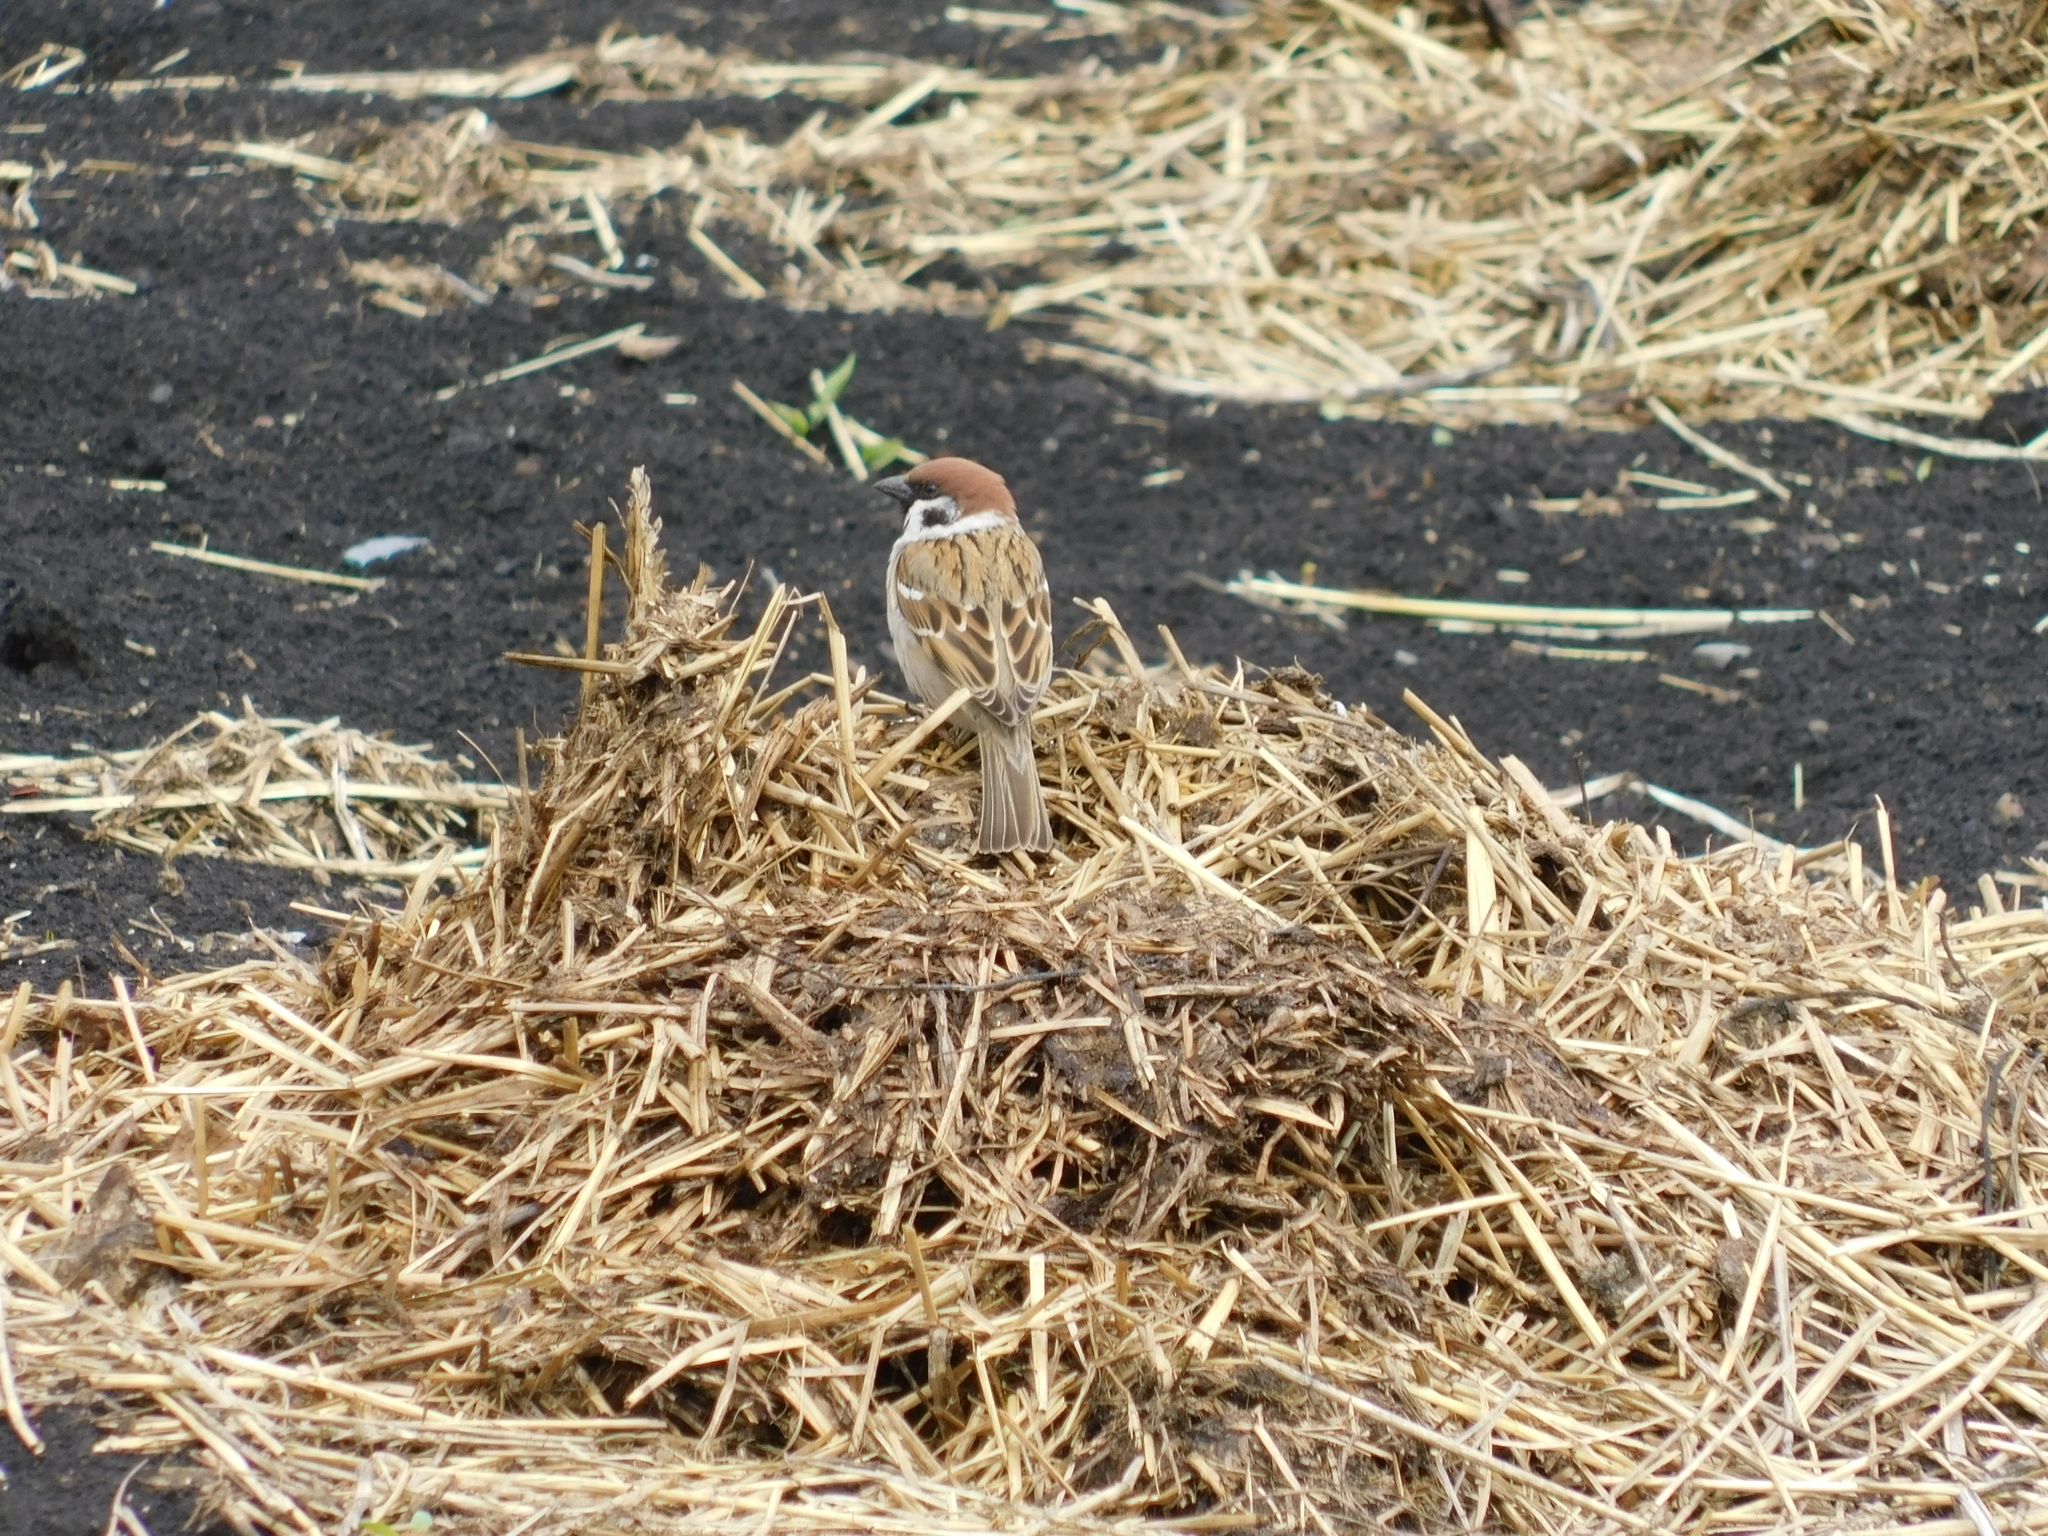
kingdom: Animalia
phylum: Chordata
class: Aves
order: Passeriformes
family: Passeridae
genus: Passer
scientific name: Passer montanus
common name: Eurasian tree sparrow
